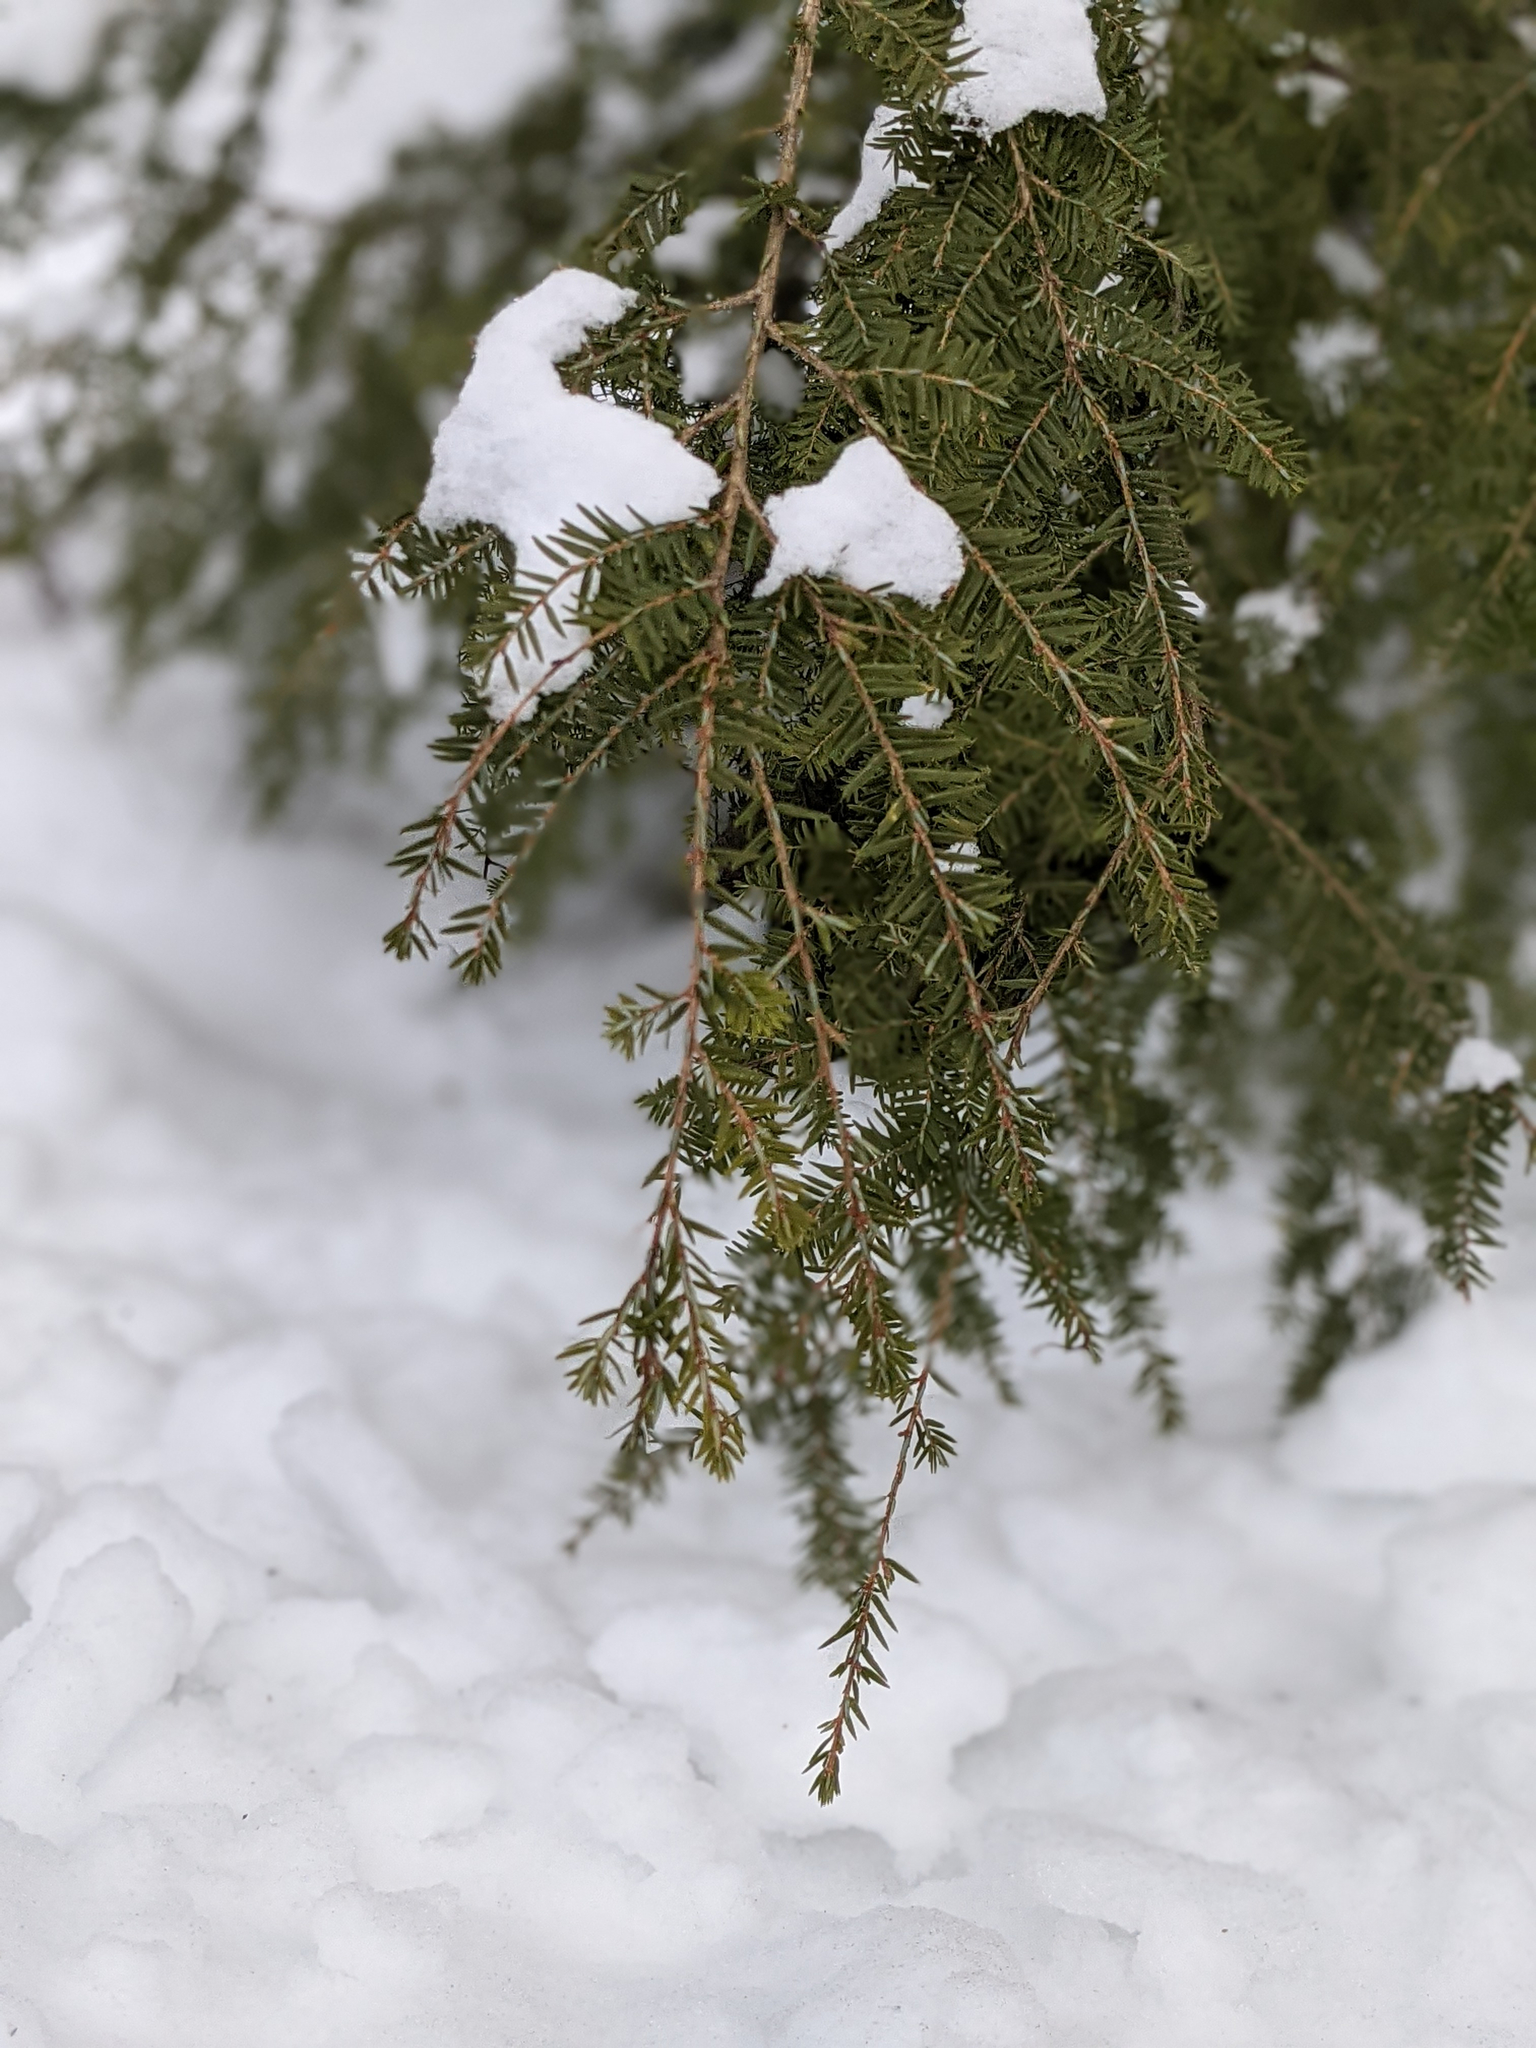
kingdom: Plantae
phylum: Tracheophyta
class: Pinopsida
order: Pinales
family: Pinaceae
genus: Tsuga
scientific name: Tsuga canadensis
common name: Eastern hemlock
